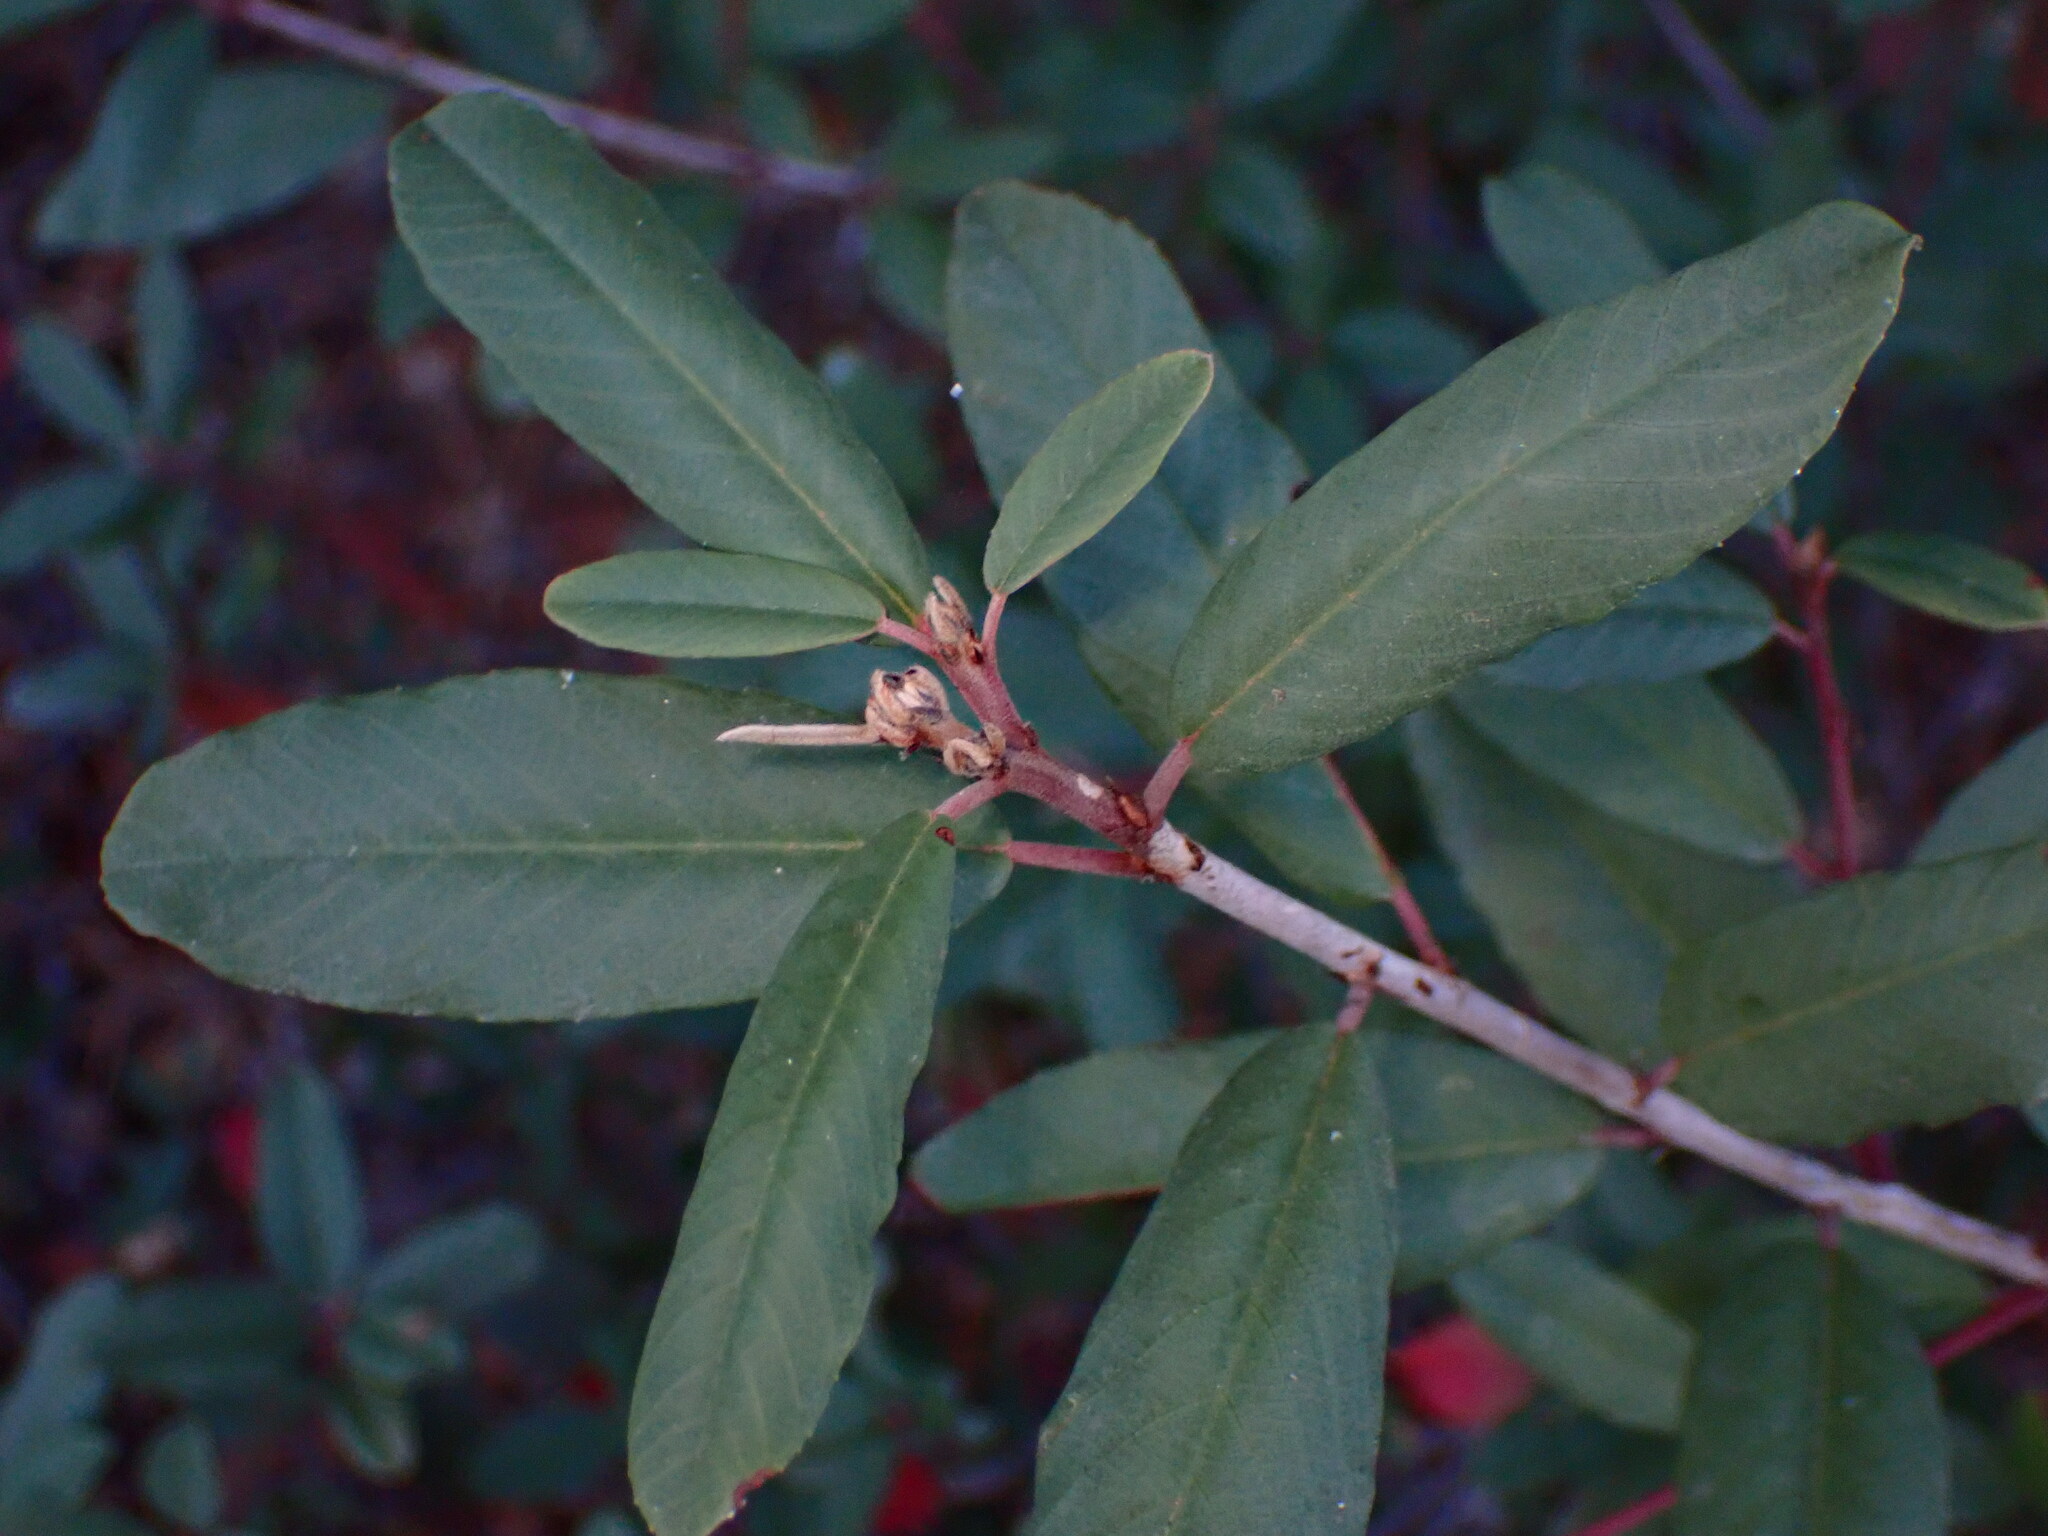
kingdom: Plantae
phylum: Tracheophyta
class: Magnoliopsida
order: Rosales
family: Rhamnaceae
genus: Frangula
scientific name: Frangula californica
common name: California buckthorn
